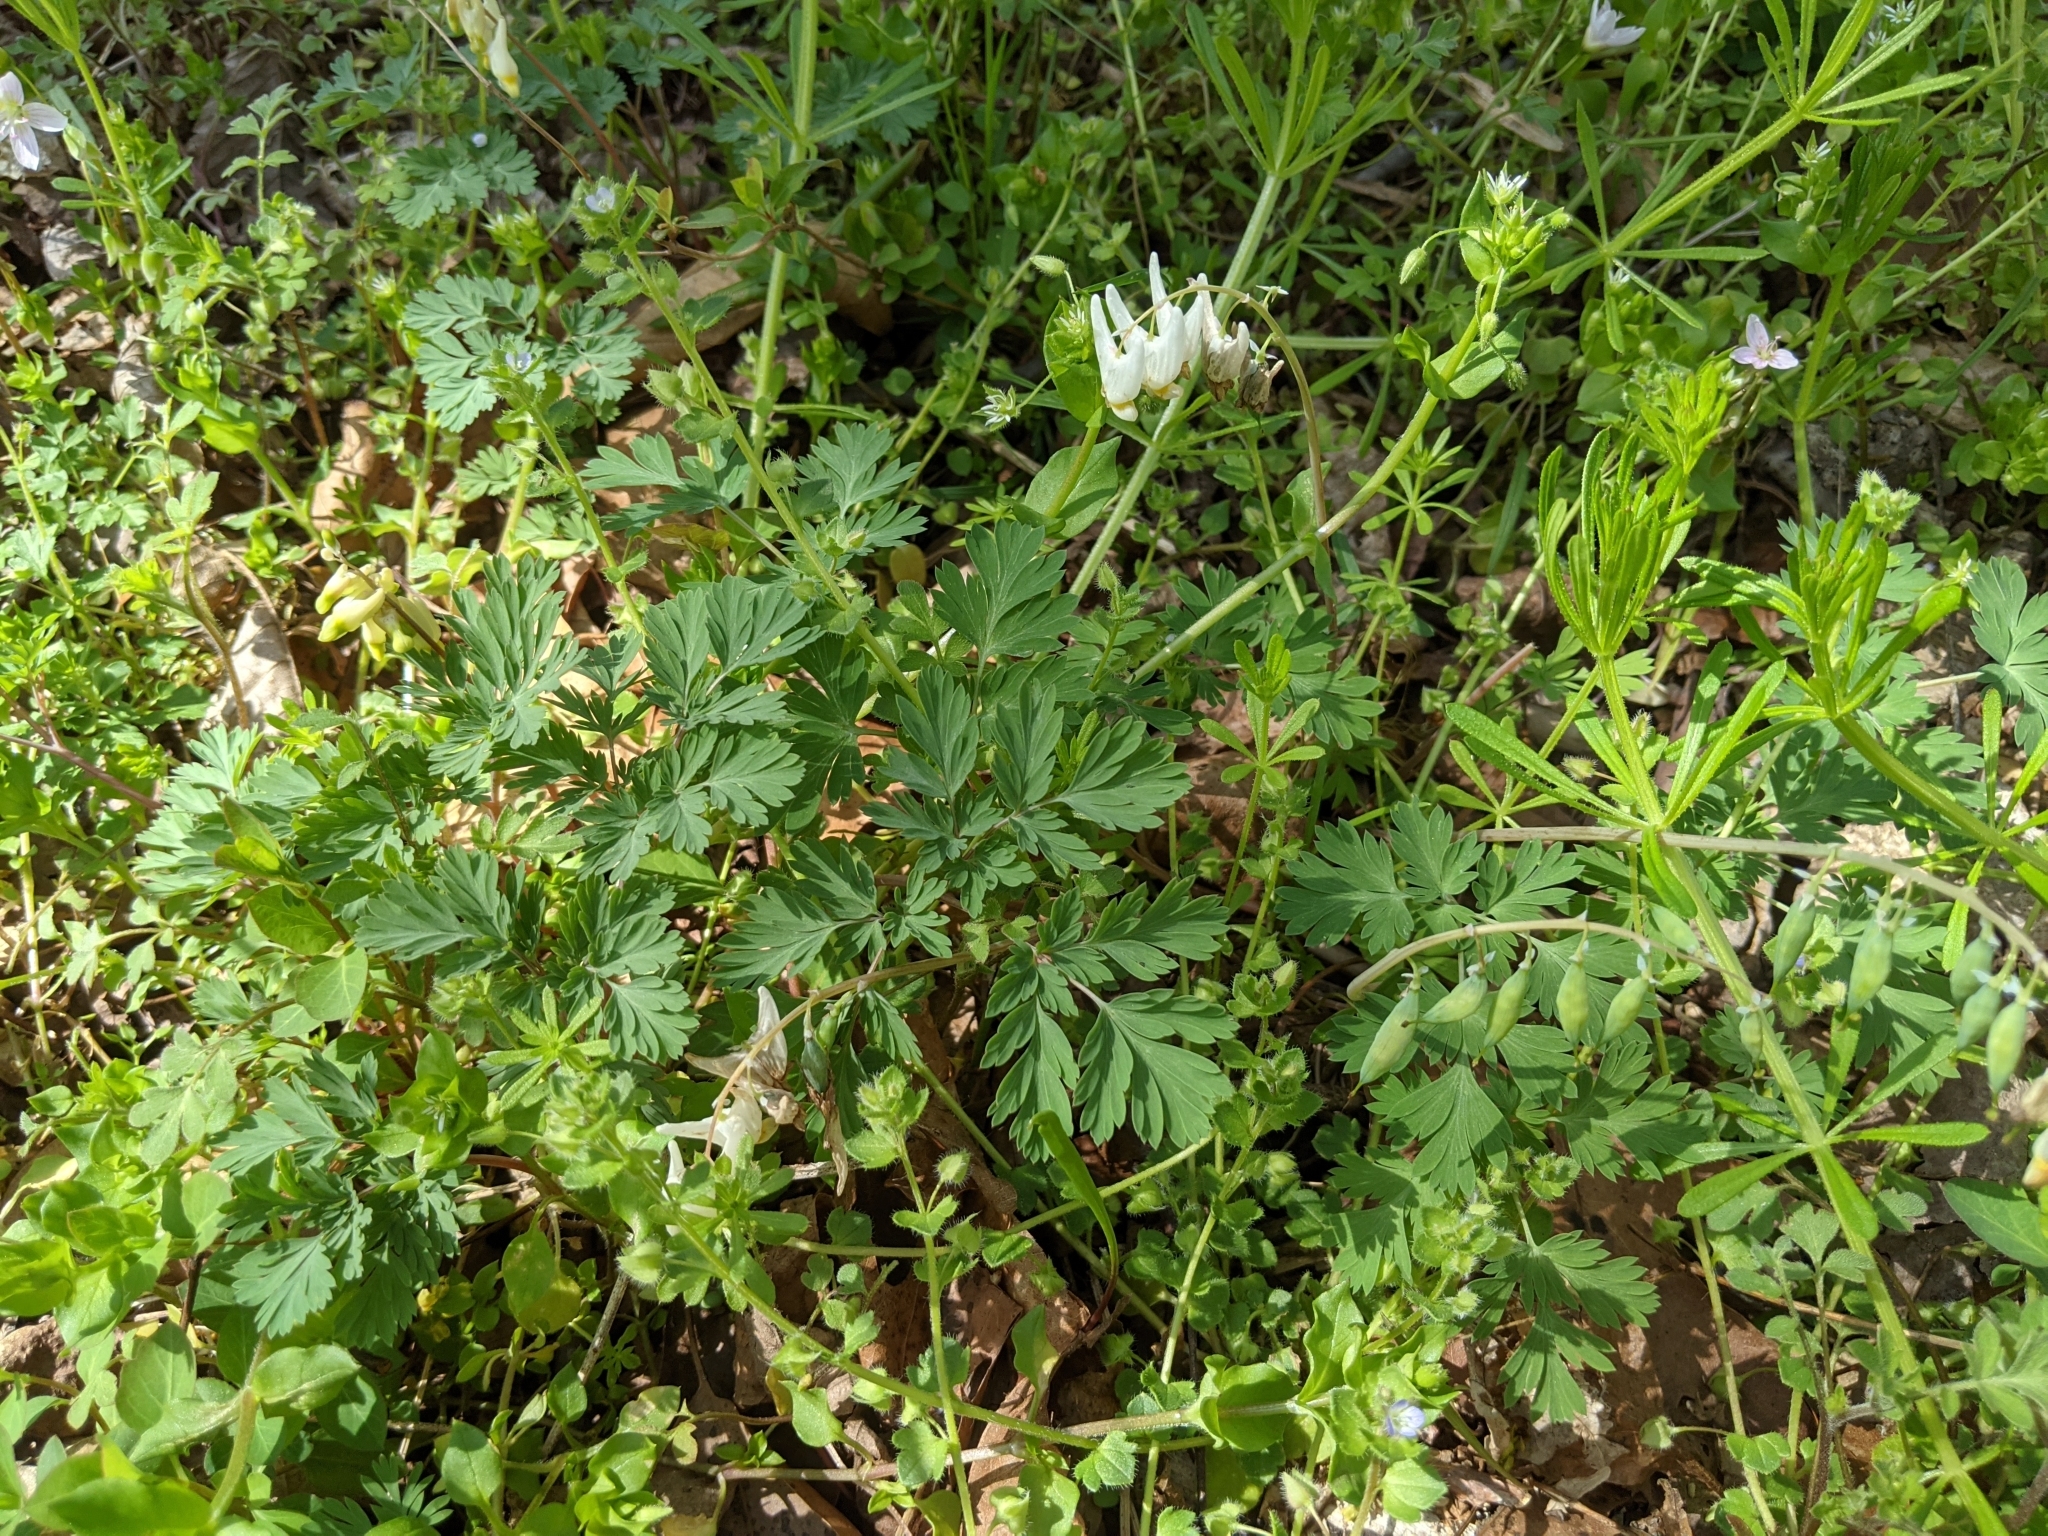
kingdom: Plantae
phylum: Tracheophyta
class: Magnoliopsida
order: Ranunculales
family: Papaveraceae
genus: Dicentra
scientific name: Dicentra cucullaria
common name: Dutchman's breeches
